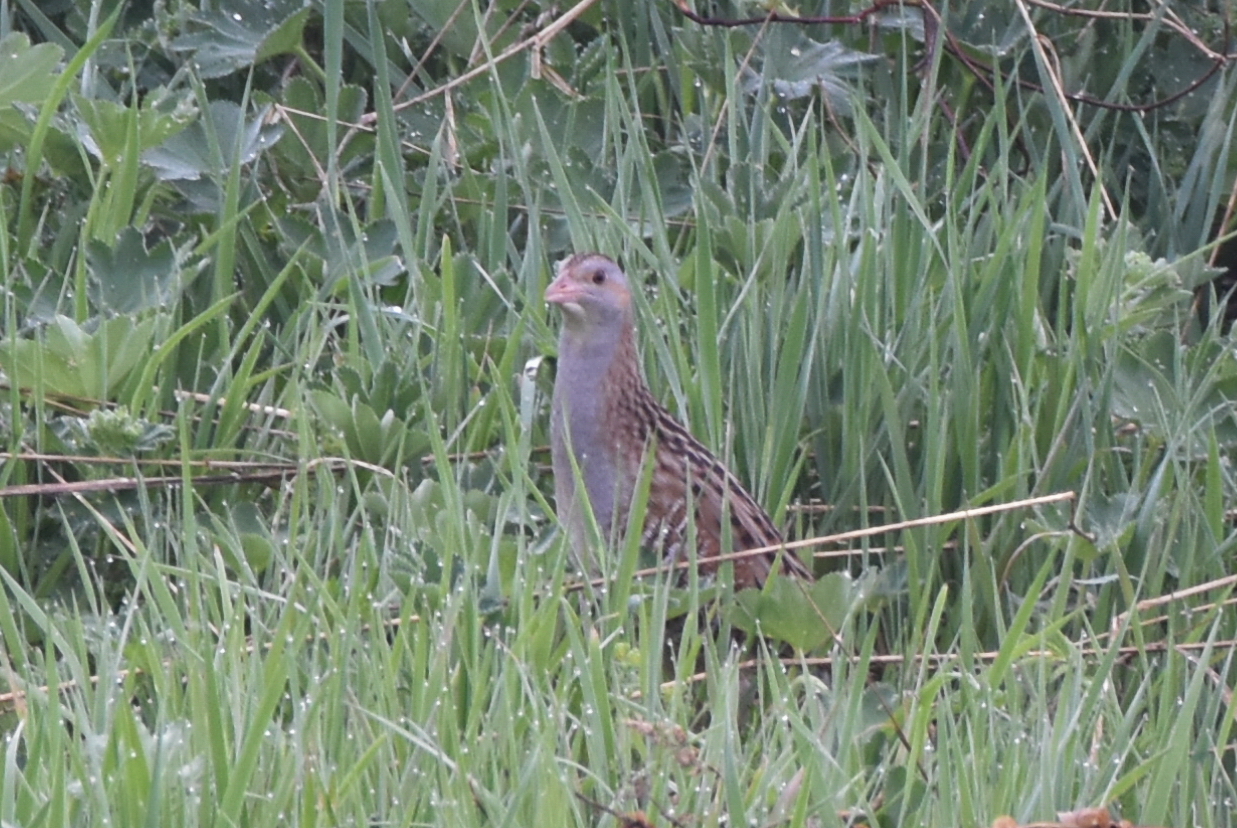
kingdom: Animalia
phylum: Chordata
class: Aves
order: Gruiformes
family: Rallidae
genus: Crex
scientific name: Crex crex
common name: Corn crake
